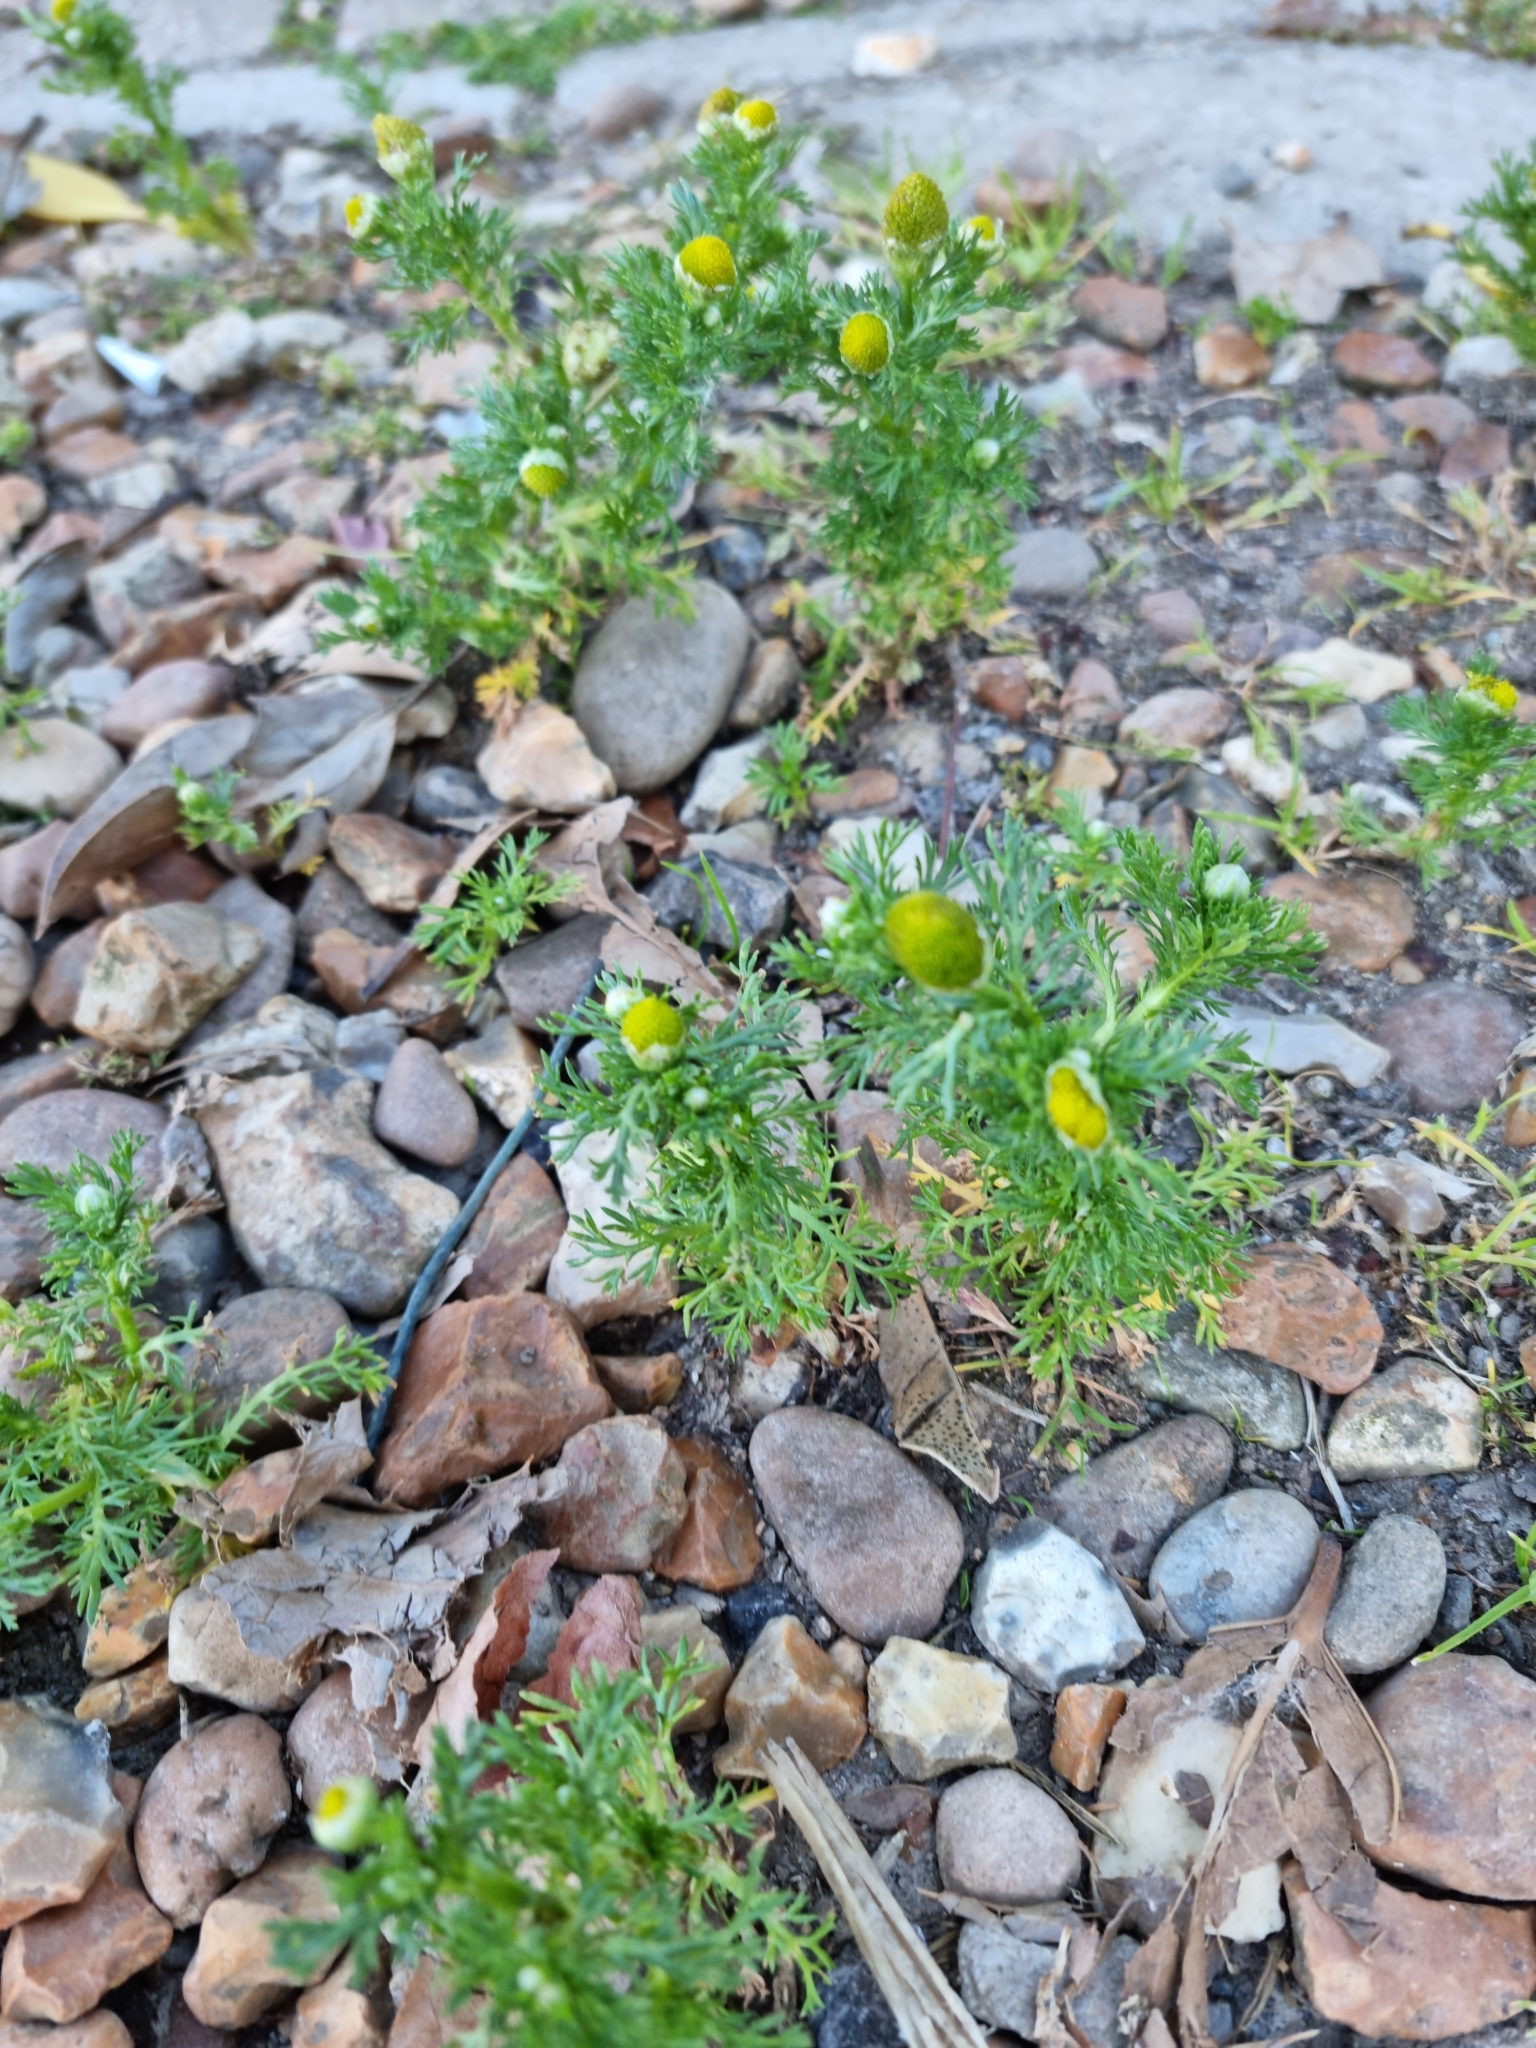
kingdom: Plantae
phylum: Tracheophyta
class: Magnoliopsida
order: Asterales
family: Asteraceae
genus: Matricaria
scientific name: Matricaria discoidea
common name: Disc mayweed
